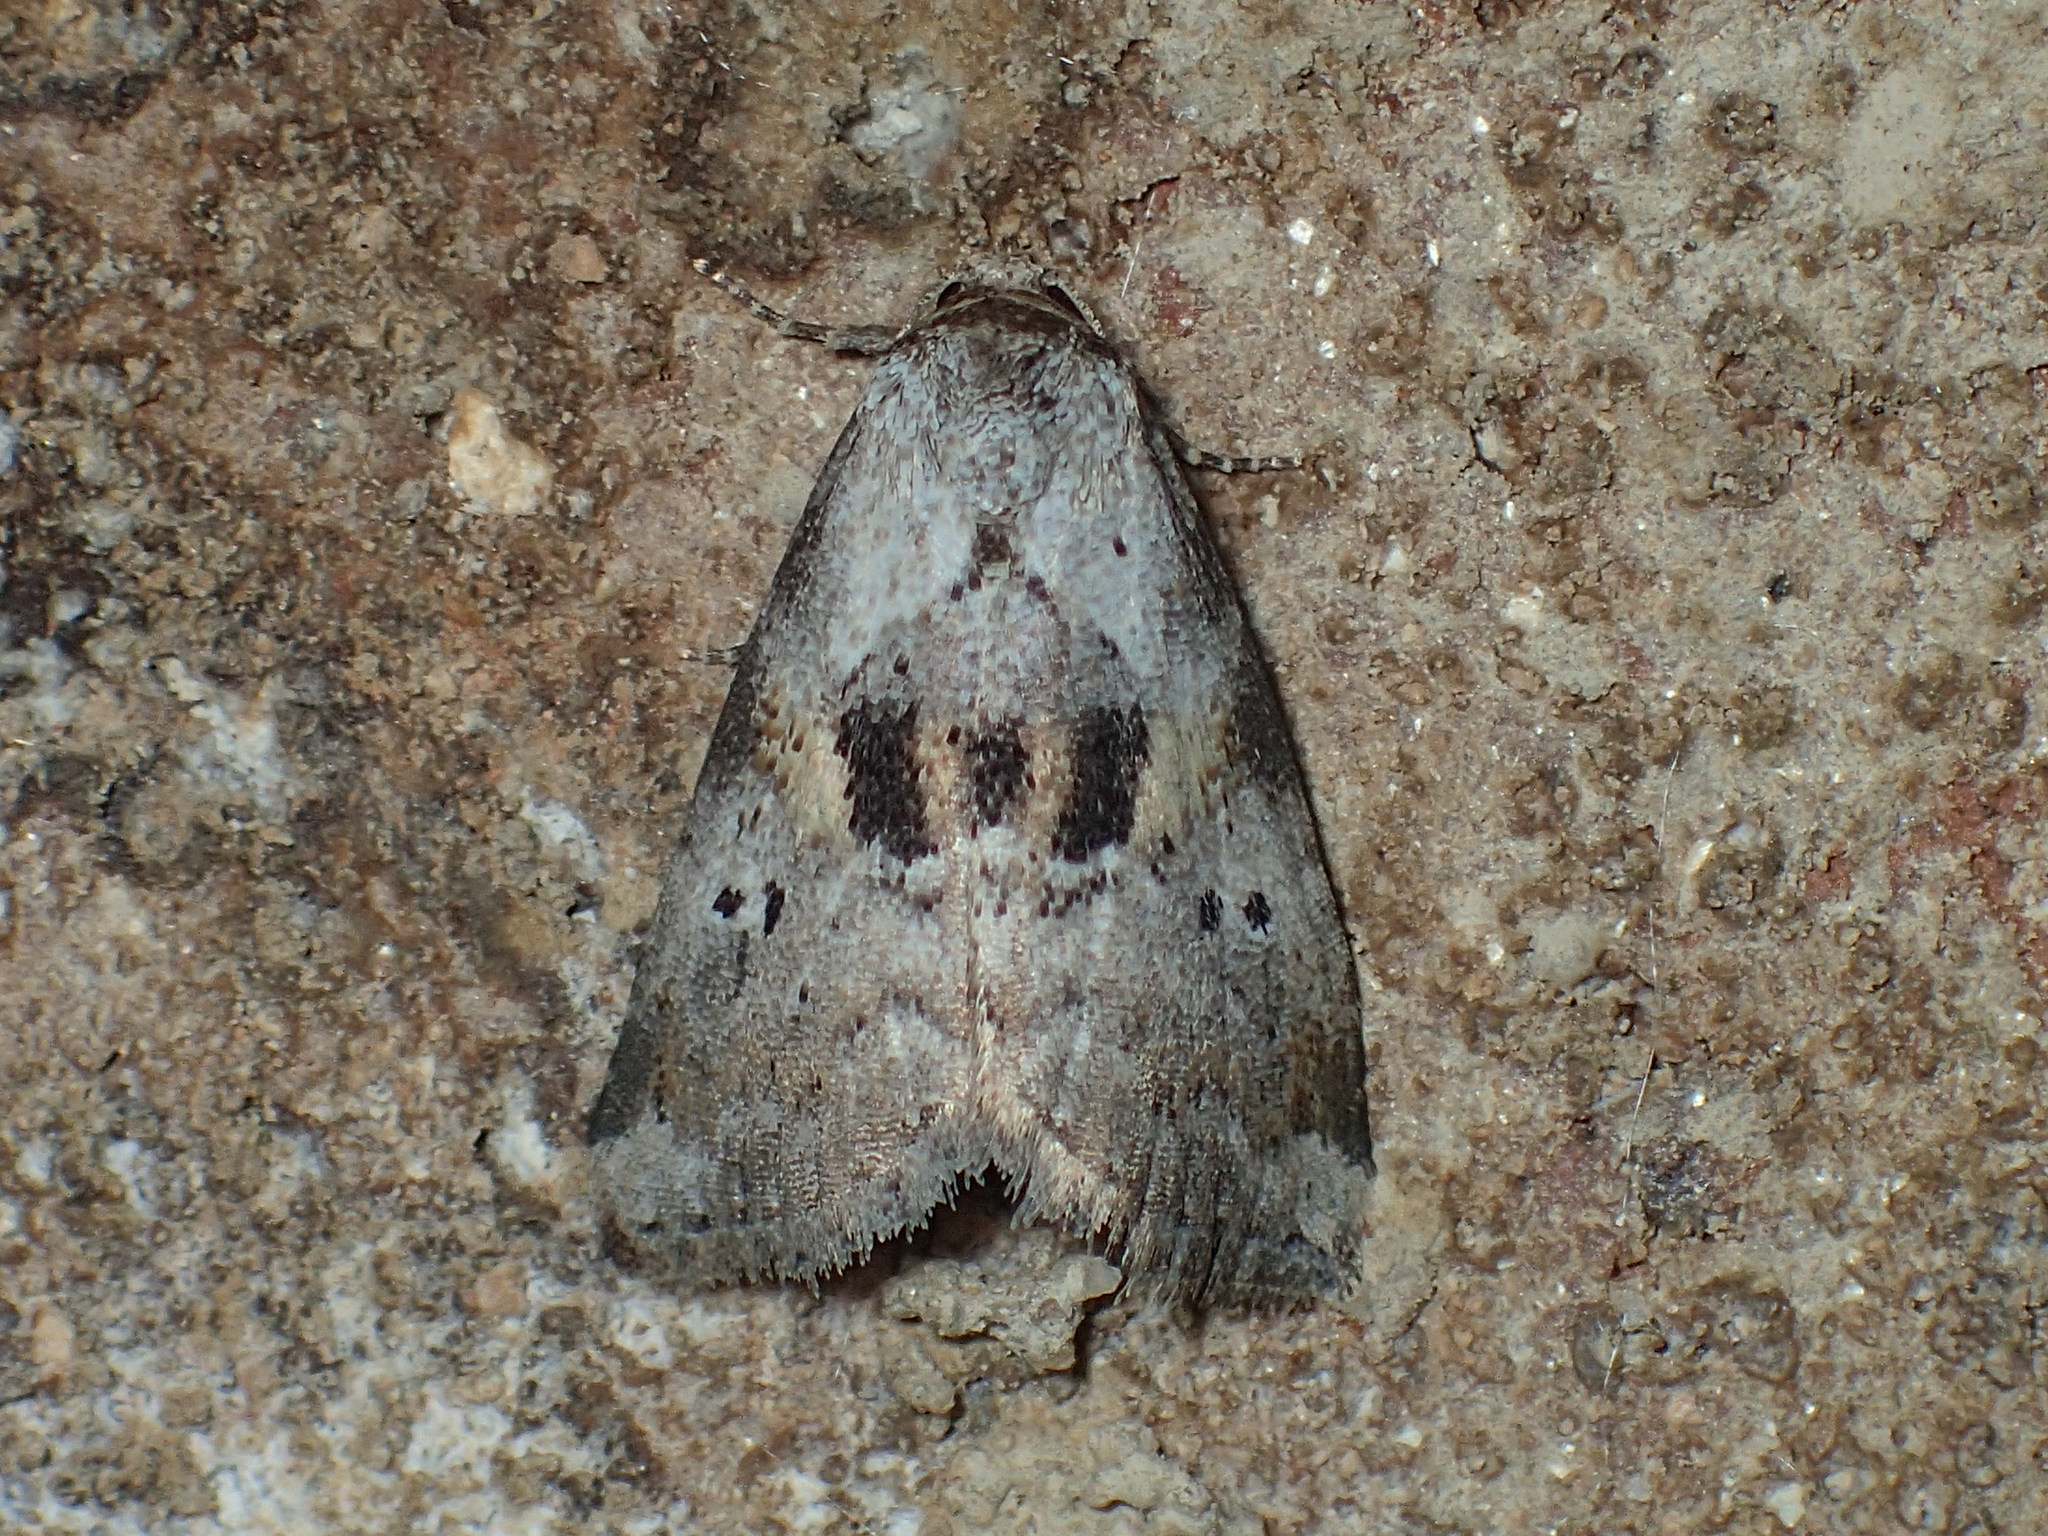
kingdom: Animalia
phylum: Arthropoda
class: Insecta
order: Lepidoptera
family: Erebidae
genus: Hyperstrotia
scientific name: Hyperstrotia secta
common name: Black-patched graylet
